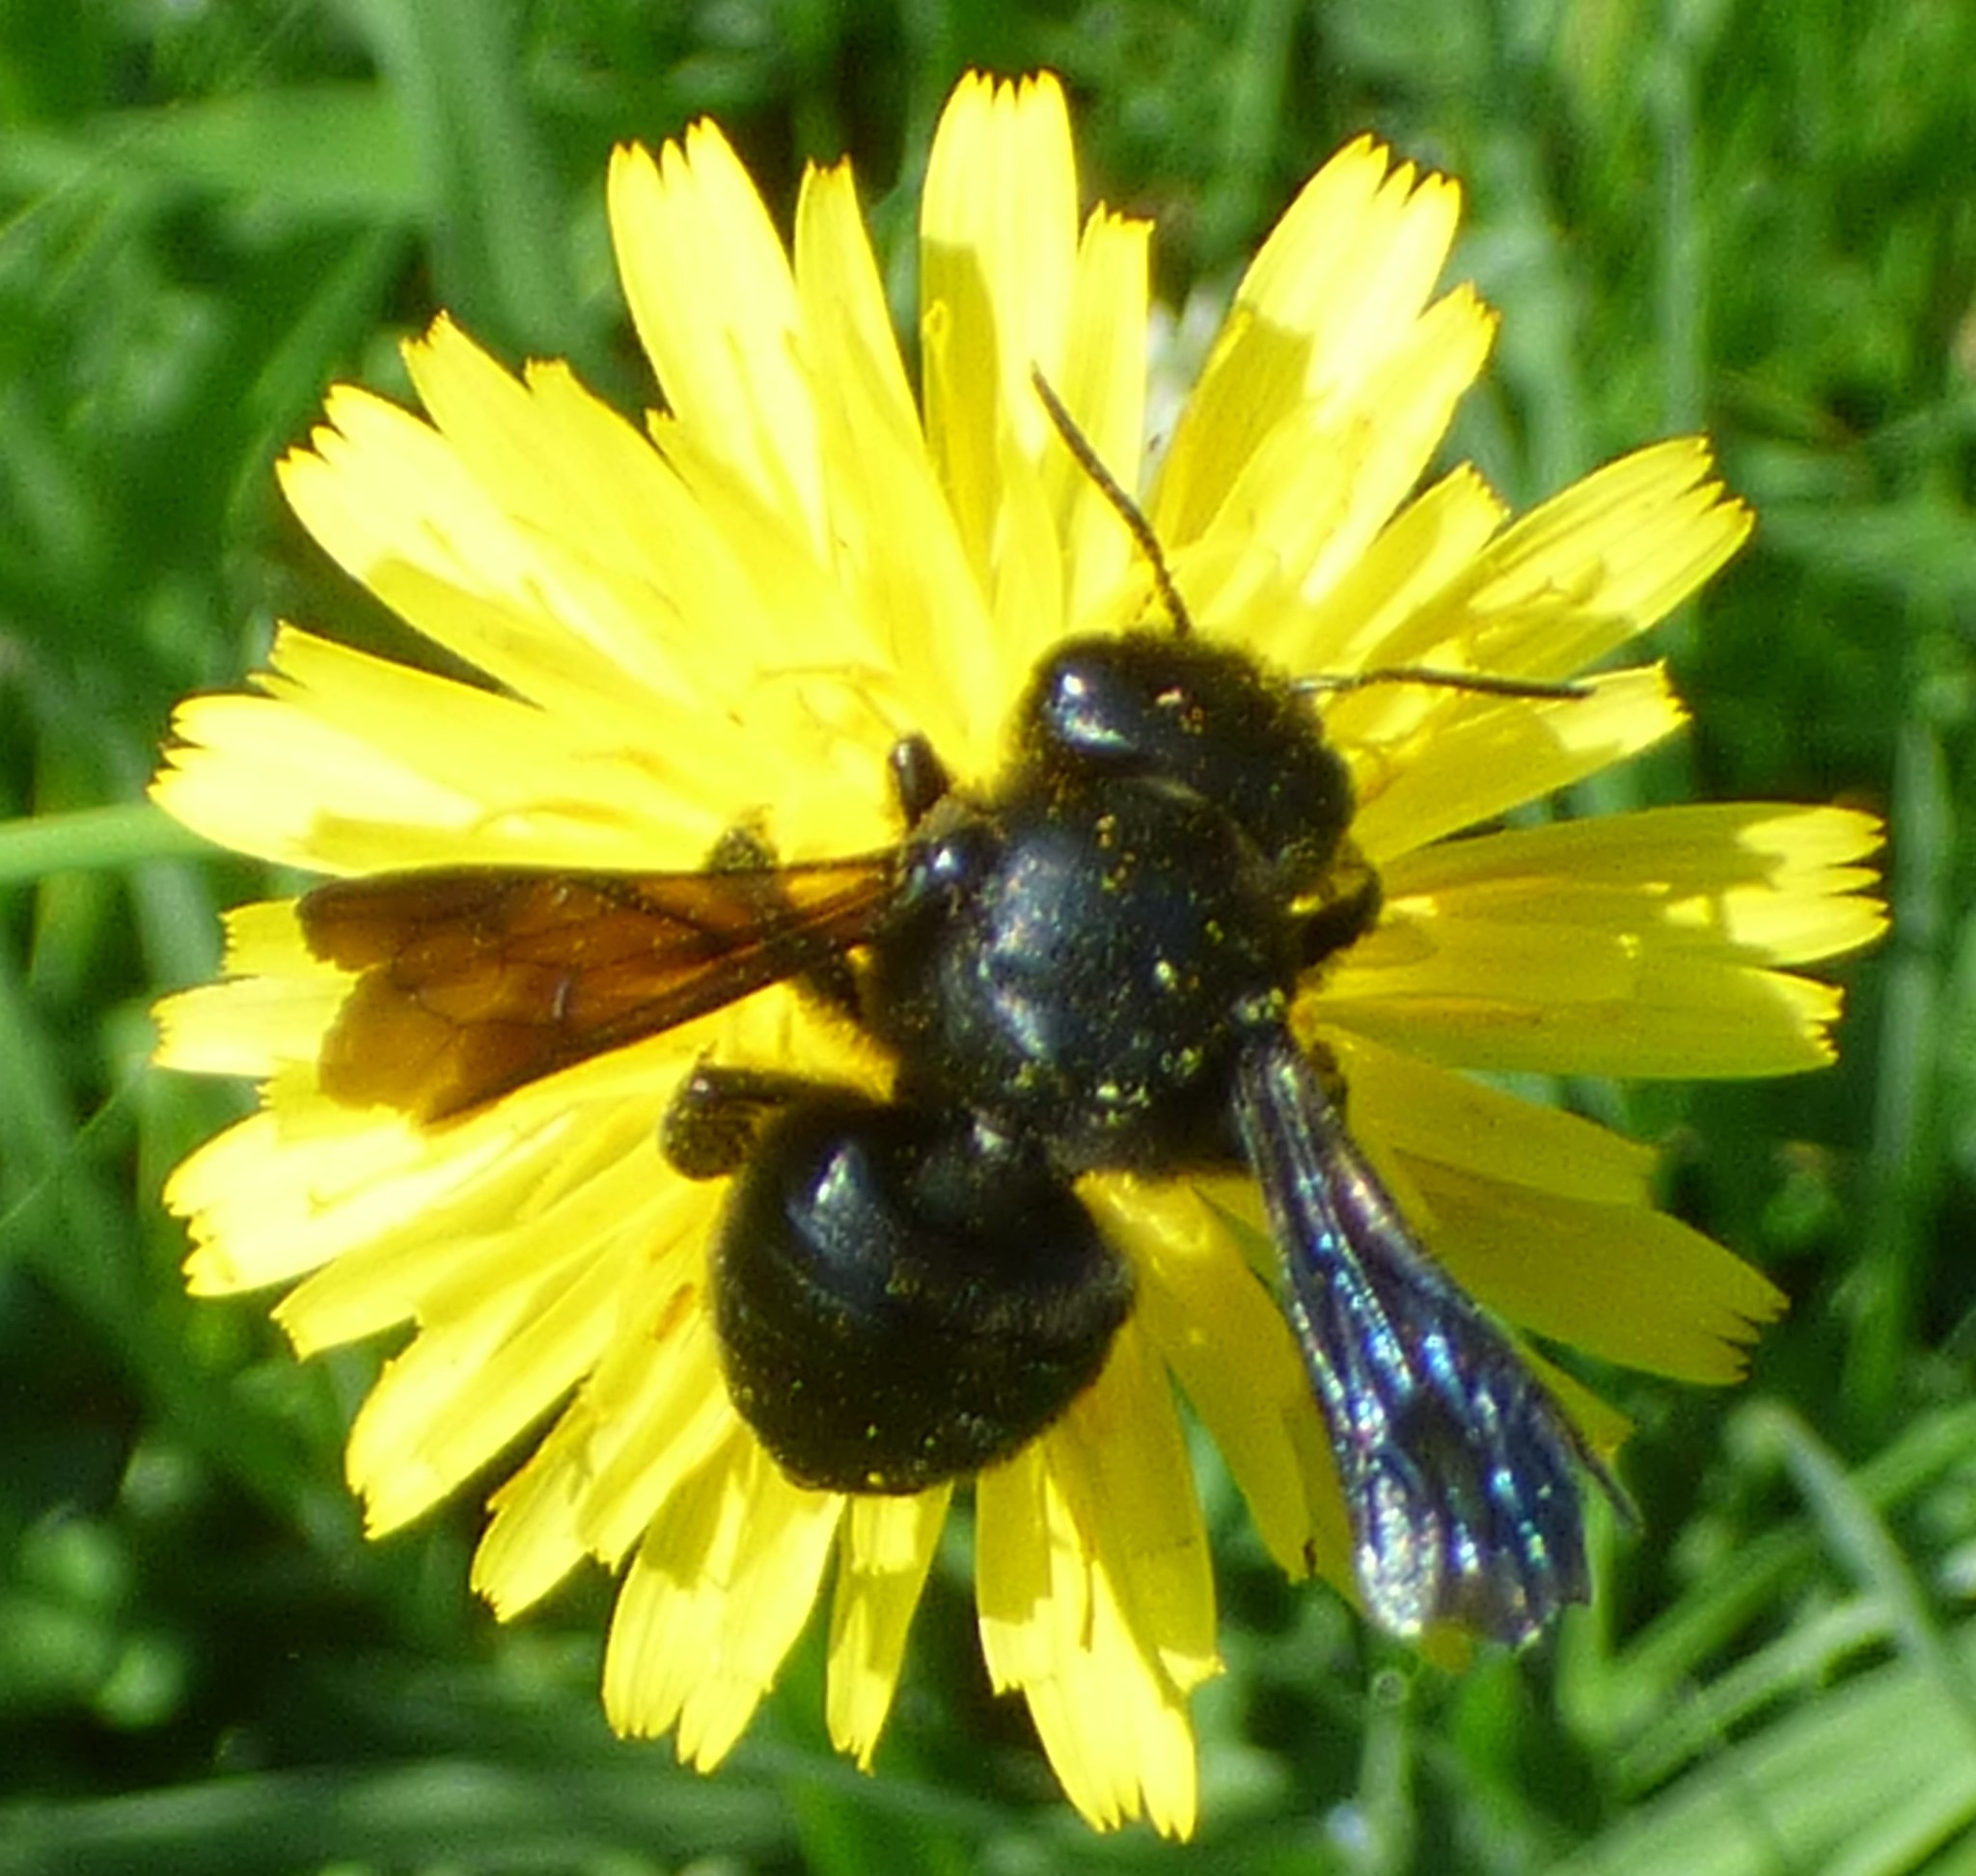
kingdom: Animalia
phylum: Arthropoda
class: Insecta
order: Hymenoptera
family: Megachilidae
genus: Megachile
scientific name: Megachile xylocopoides
